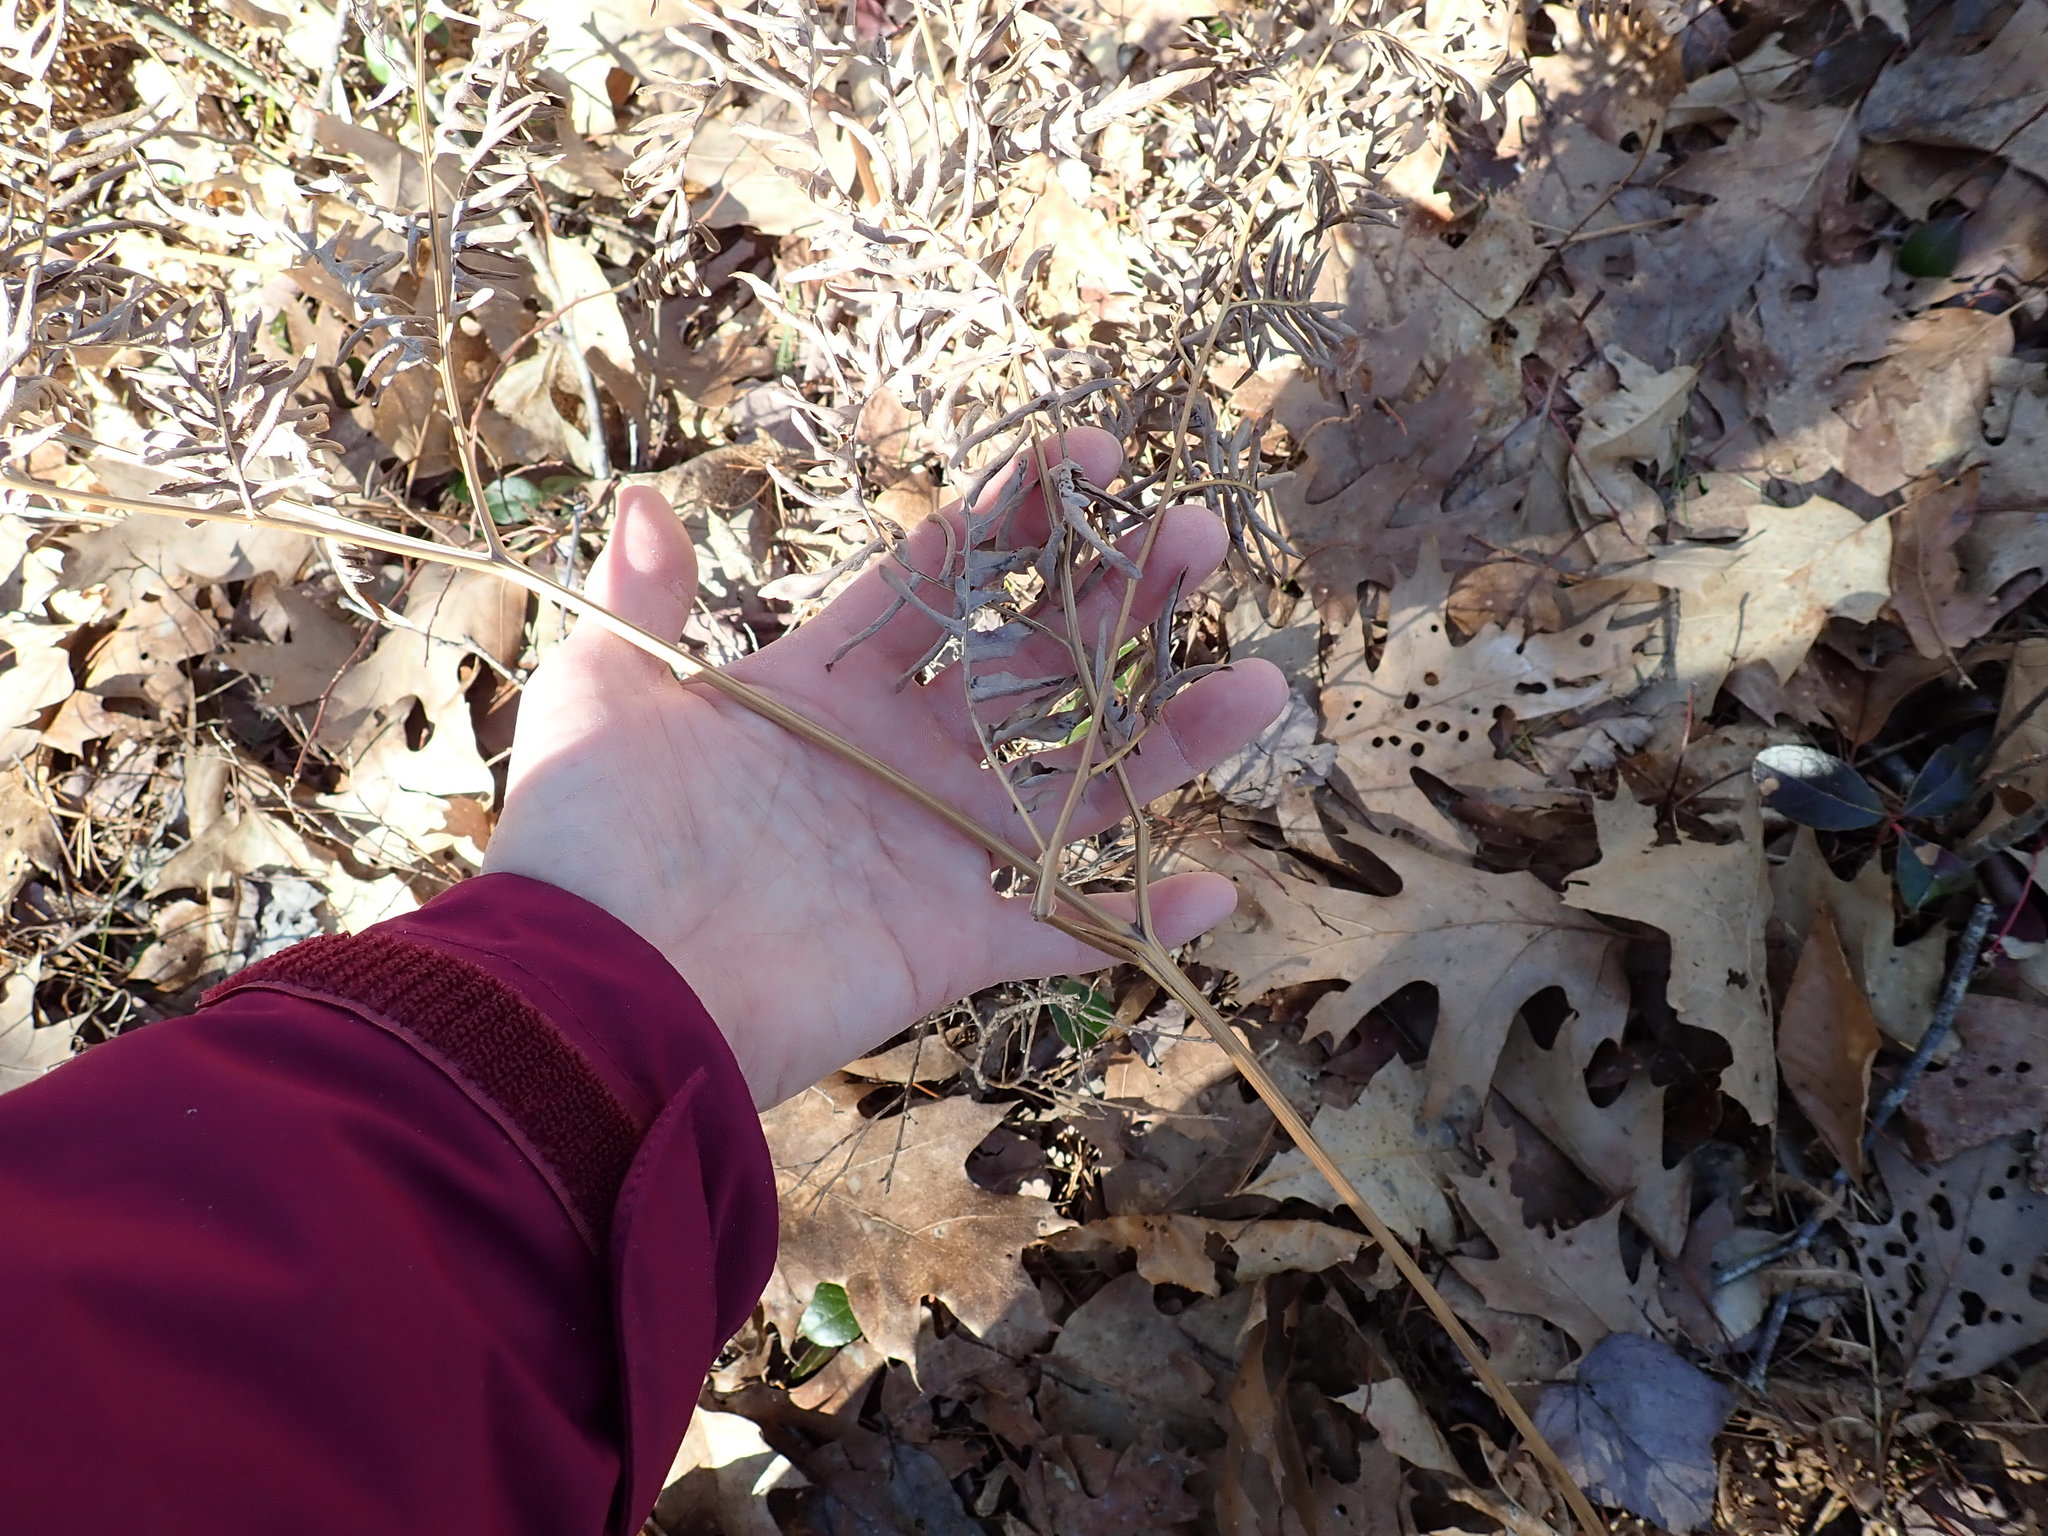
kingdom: Plantae
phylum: Tracheophyta
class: Polypodiopsida
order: Polypodiales
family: Dennstaedtiaceae
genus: Pteridium
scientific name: Pteridium aquilinum
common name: Bracken
